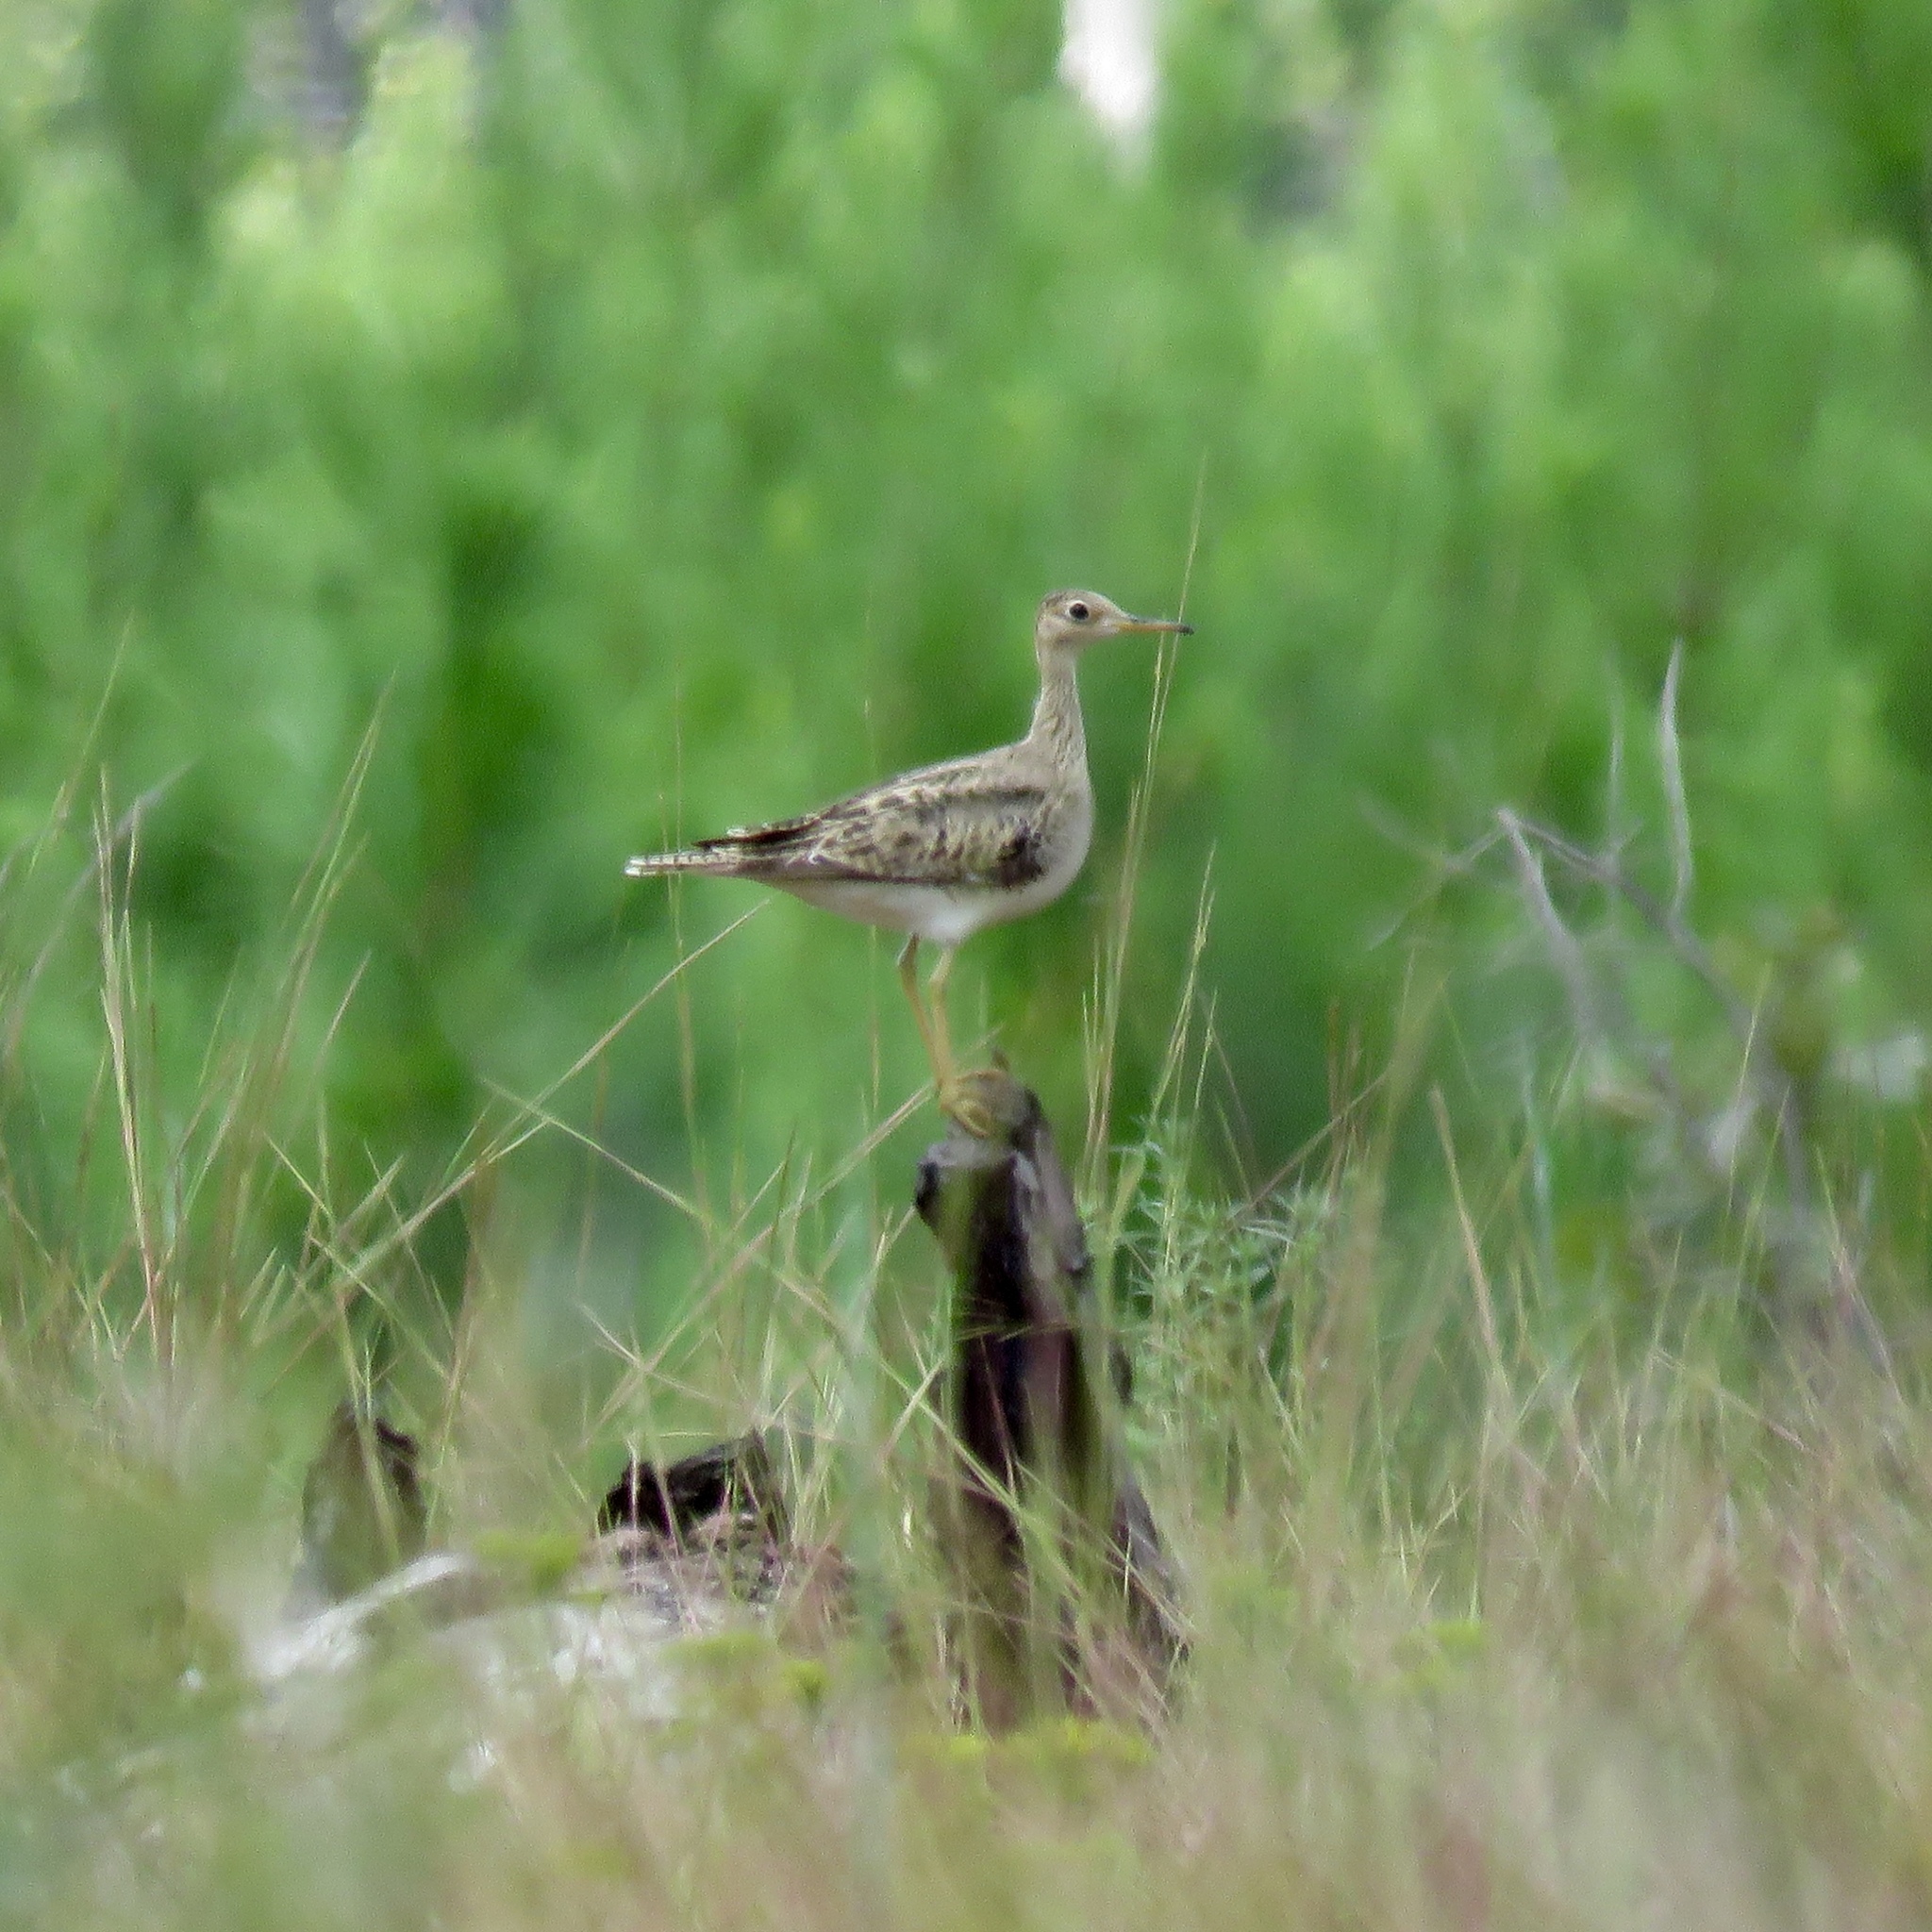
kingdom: Animalia
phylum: Chordata
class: Aves
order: Charadriiformes
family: Scolopacidae
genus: Bartramia
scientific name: Bartramia longicauda
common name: Upland sandpiper
